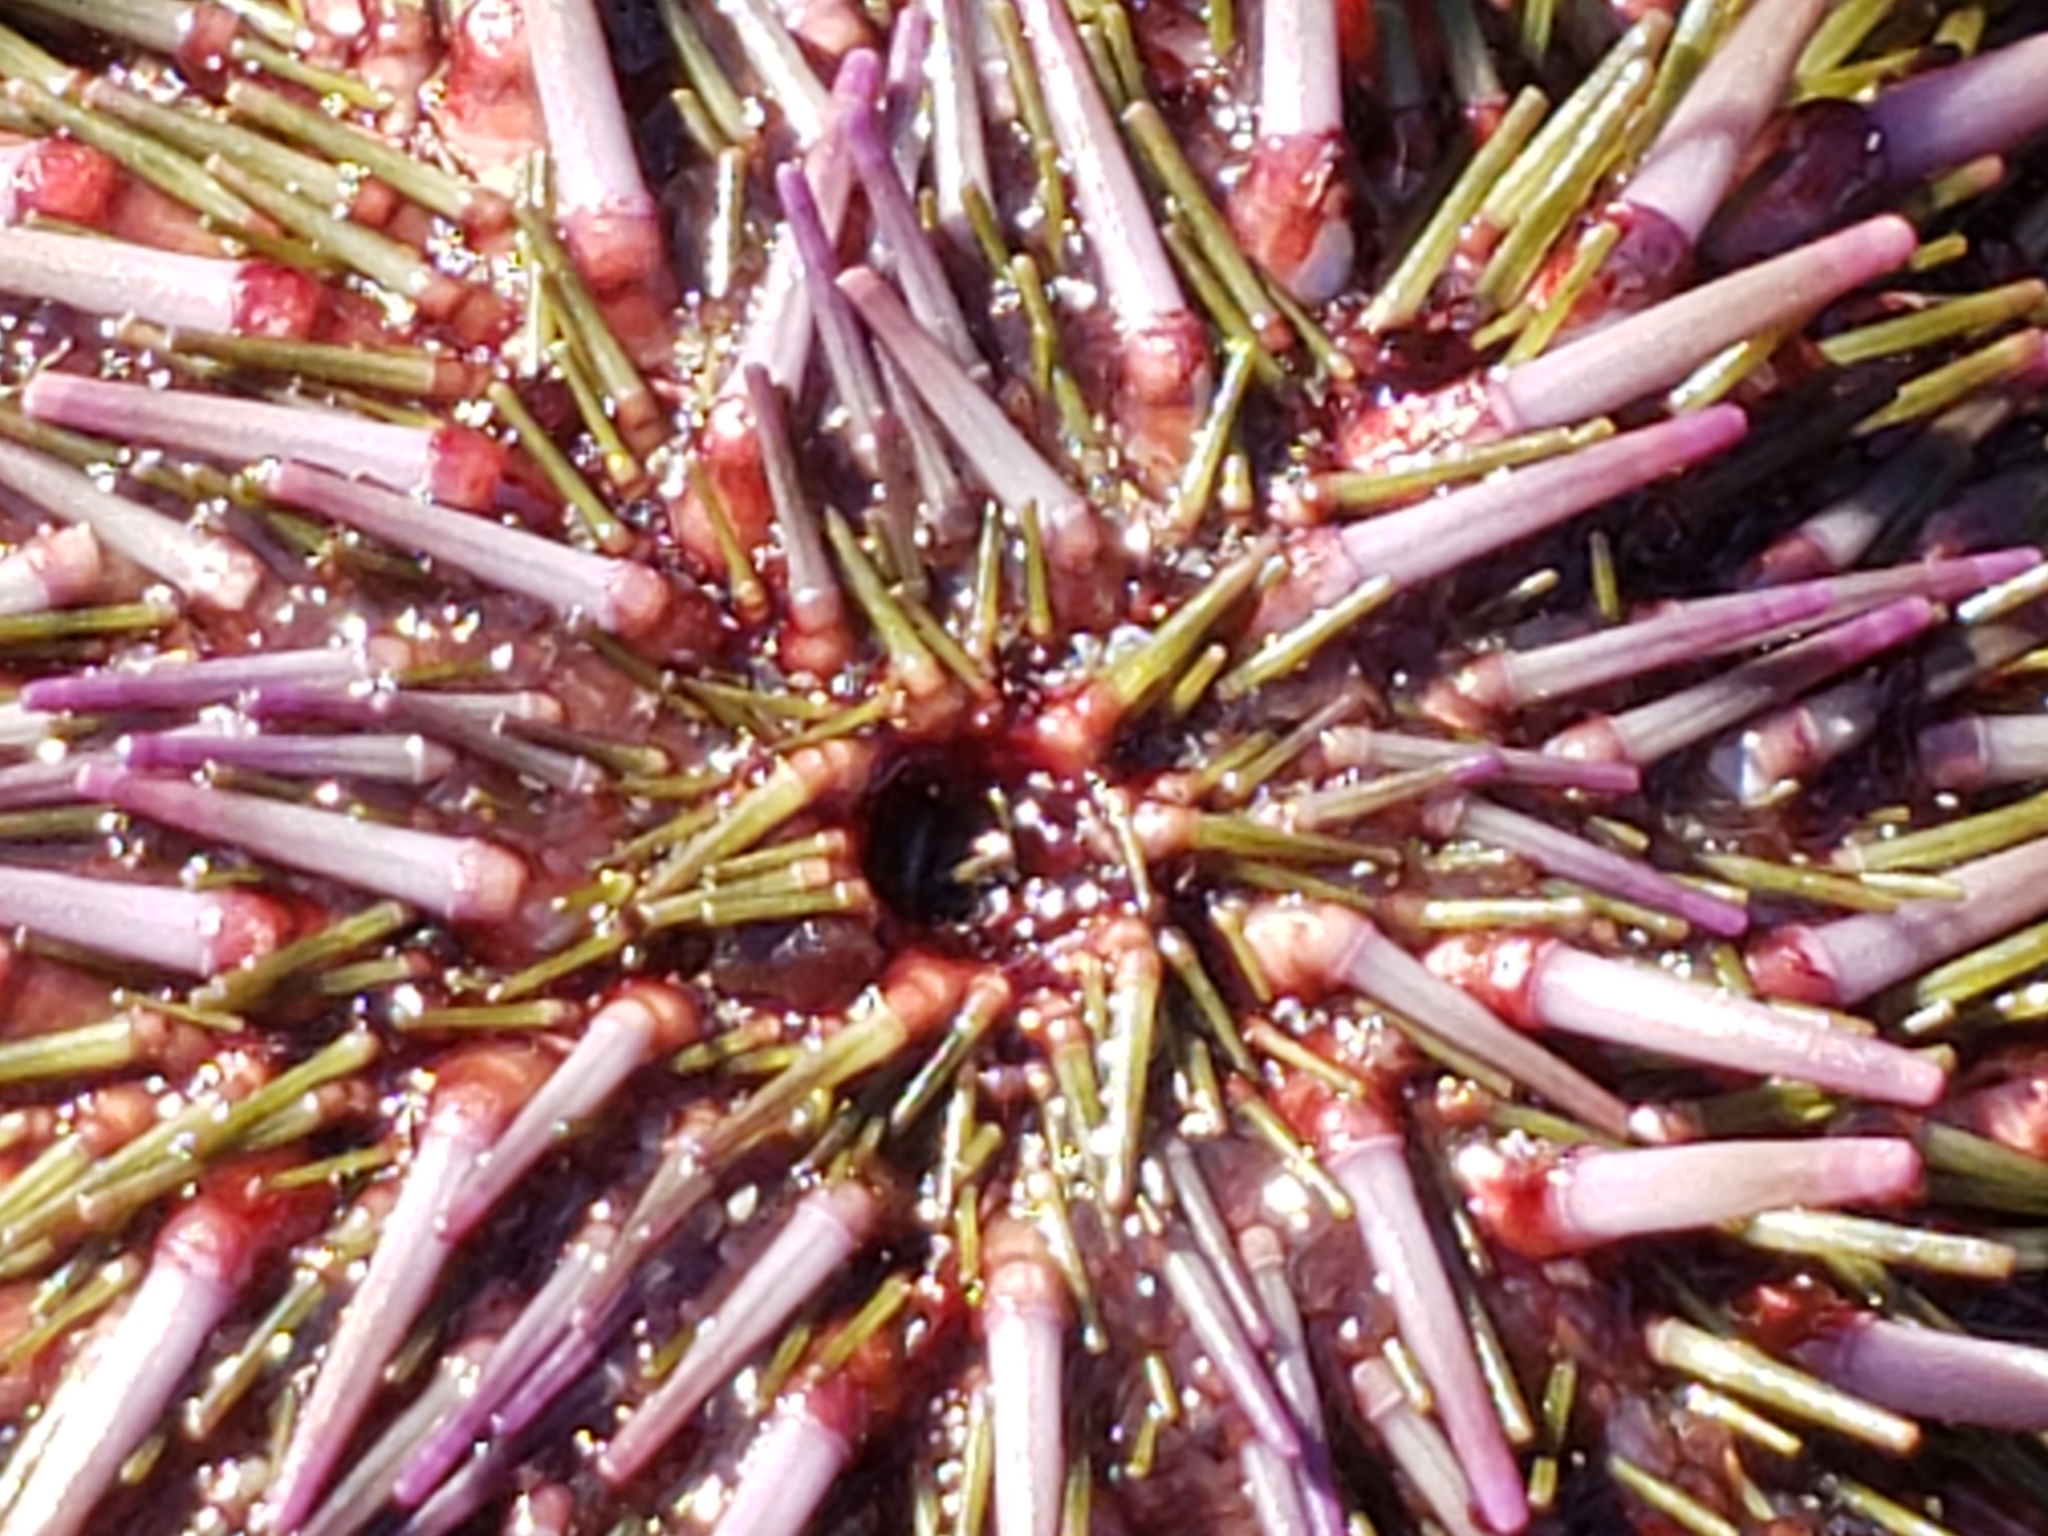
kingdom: Animalia
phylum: Echinodermata
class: Echinoidea
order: Camarodonta
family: Strongylocentrotidae
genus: Strongylocentrotus
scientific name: Strongylocentrotus purpuratus
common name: Purple sea urchin
